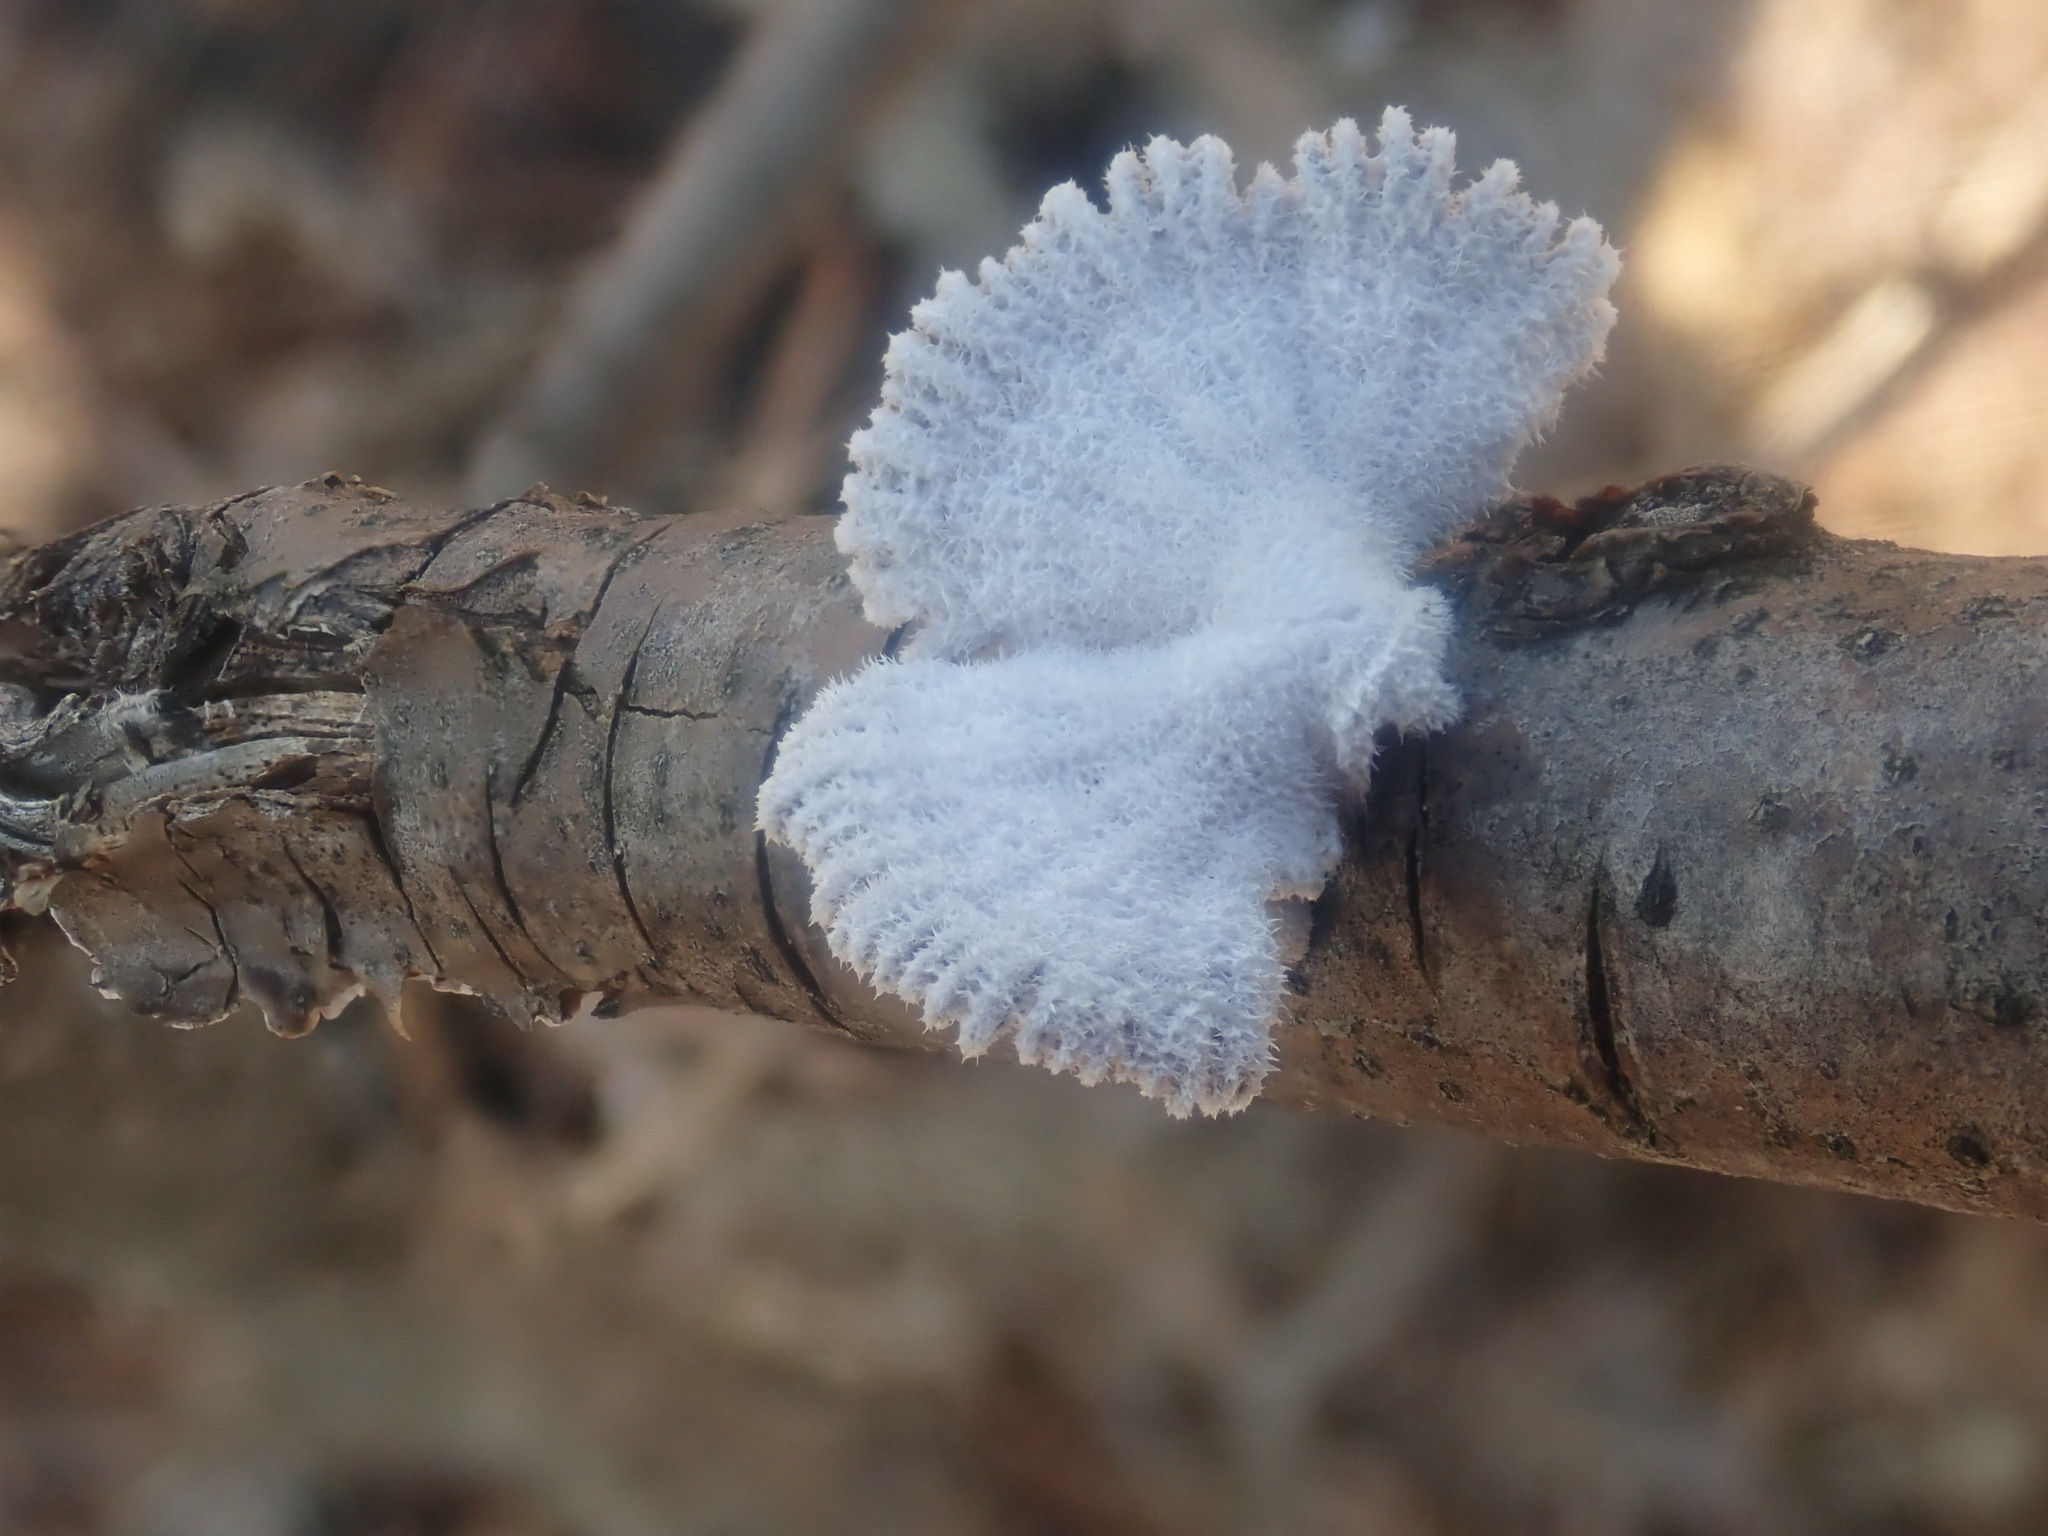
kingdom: Fungi
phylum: Basidiomycota
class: Agaricomycetes
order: Agaricales
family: Schizophyllaceae
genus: Schizophyllum
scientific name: Schizophyllum commune
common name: Common porecrust
